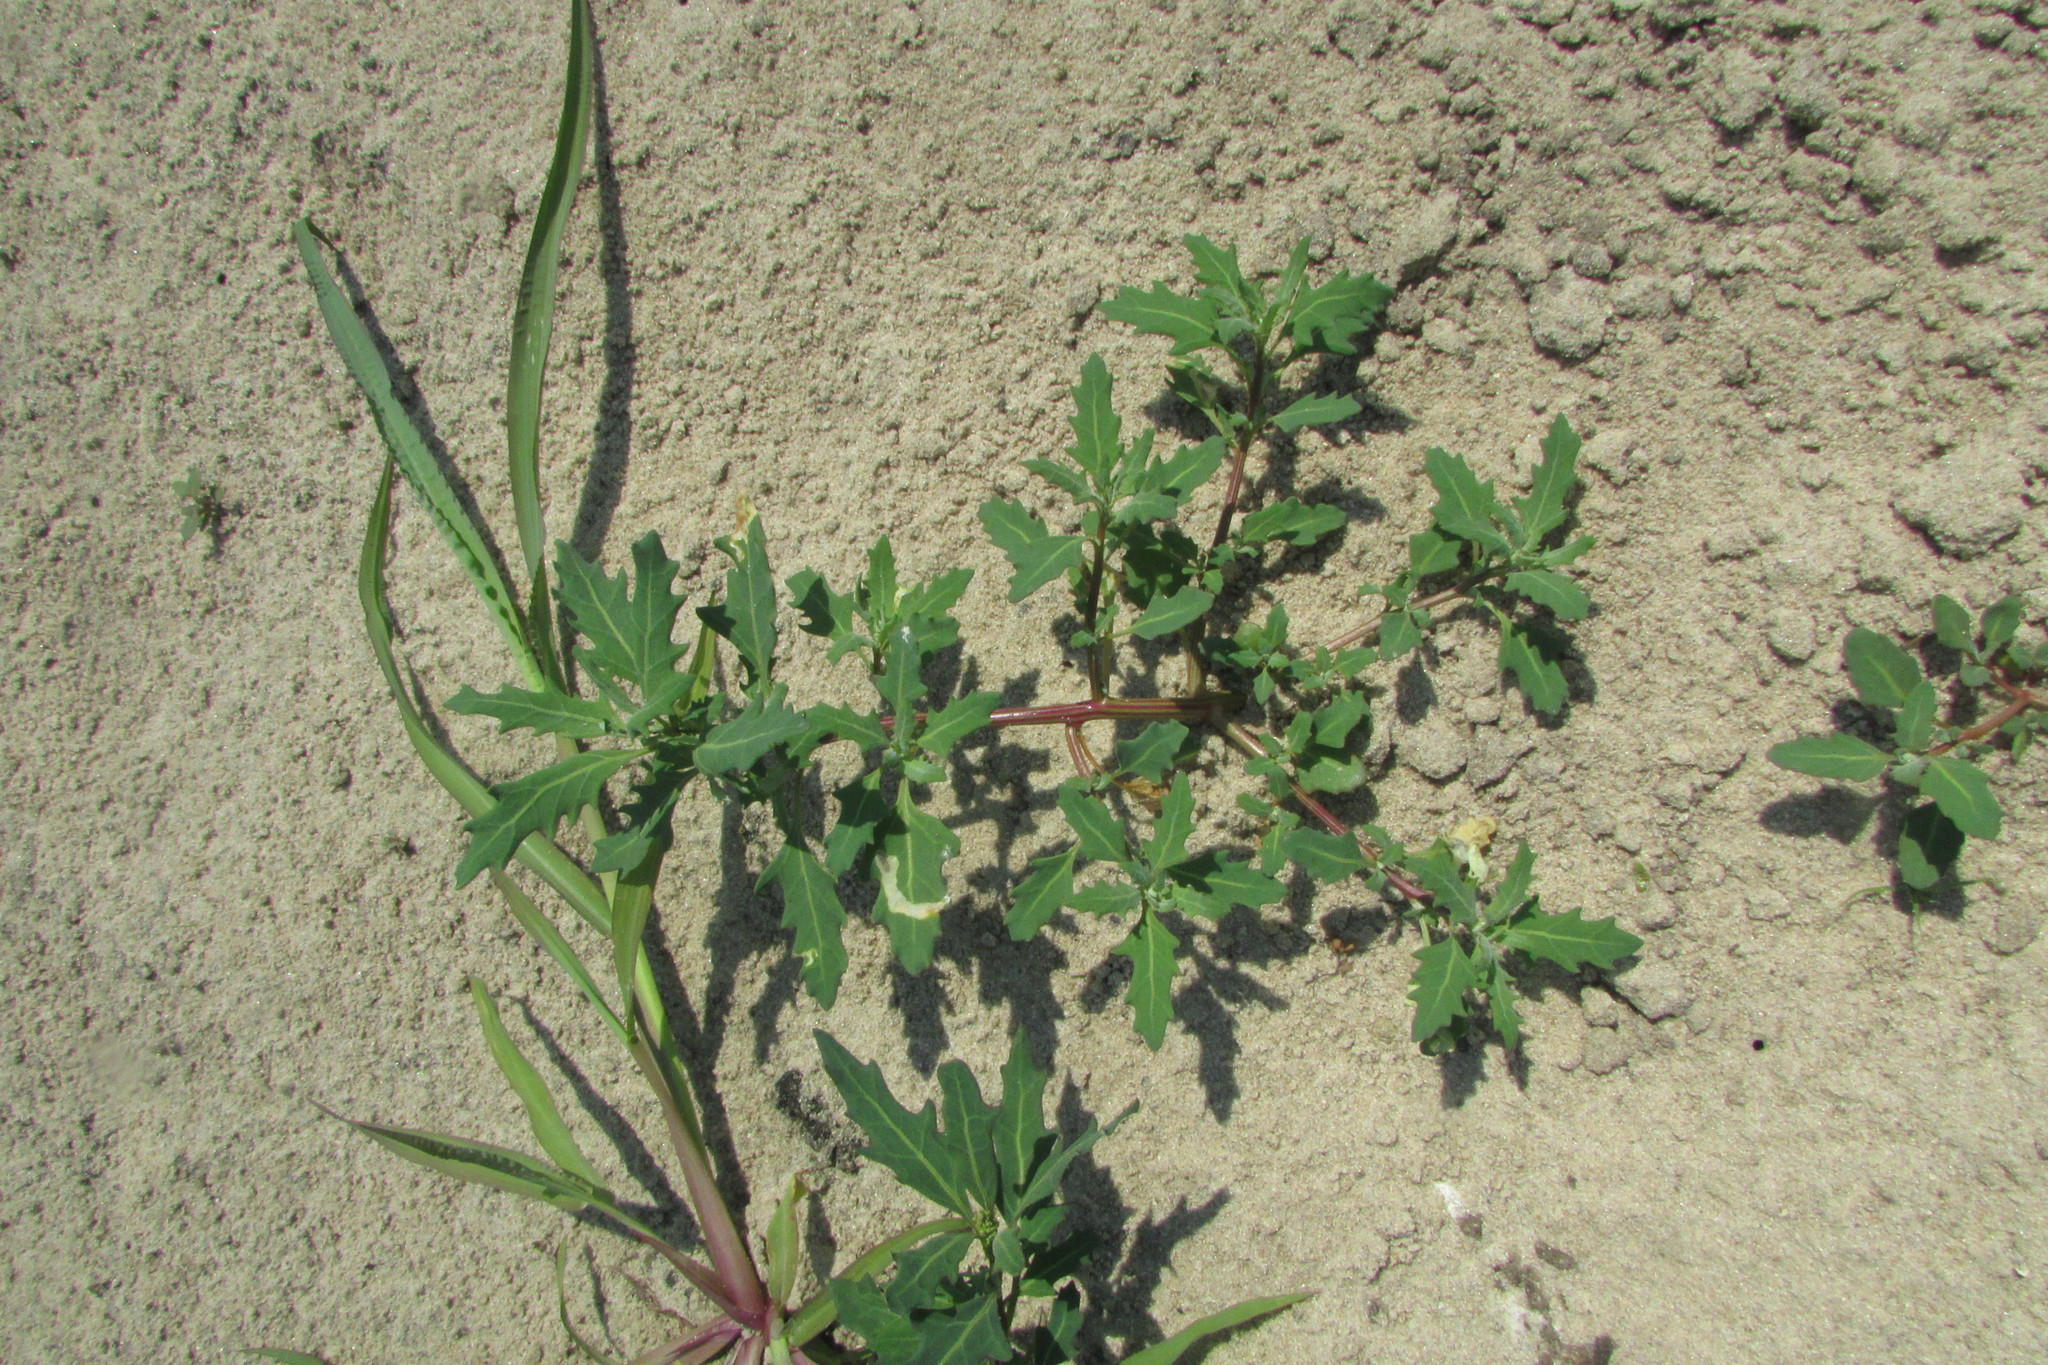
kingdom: Plantae
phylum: Tracheophyta
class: Magnoliopsida
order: Caryophyllales
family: Amaranthaceae
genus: Oxybasis
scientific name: Oxybasis glauca
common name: Glaucous goosefoot
